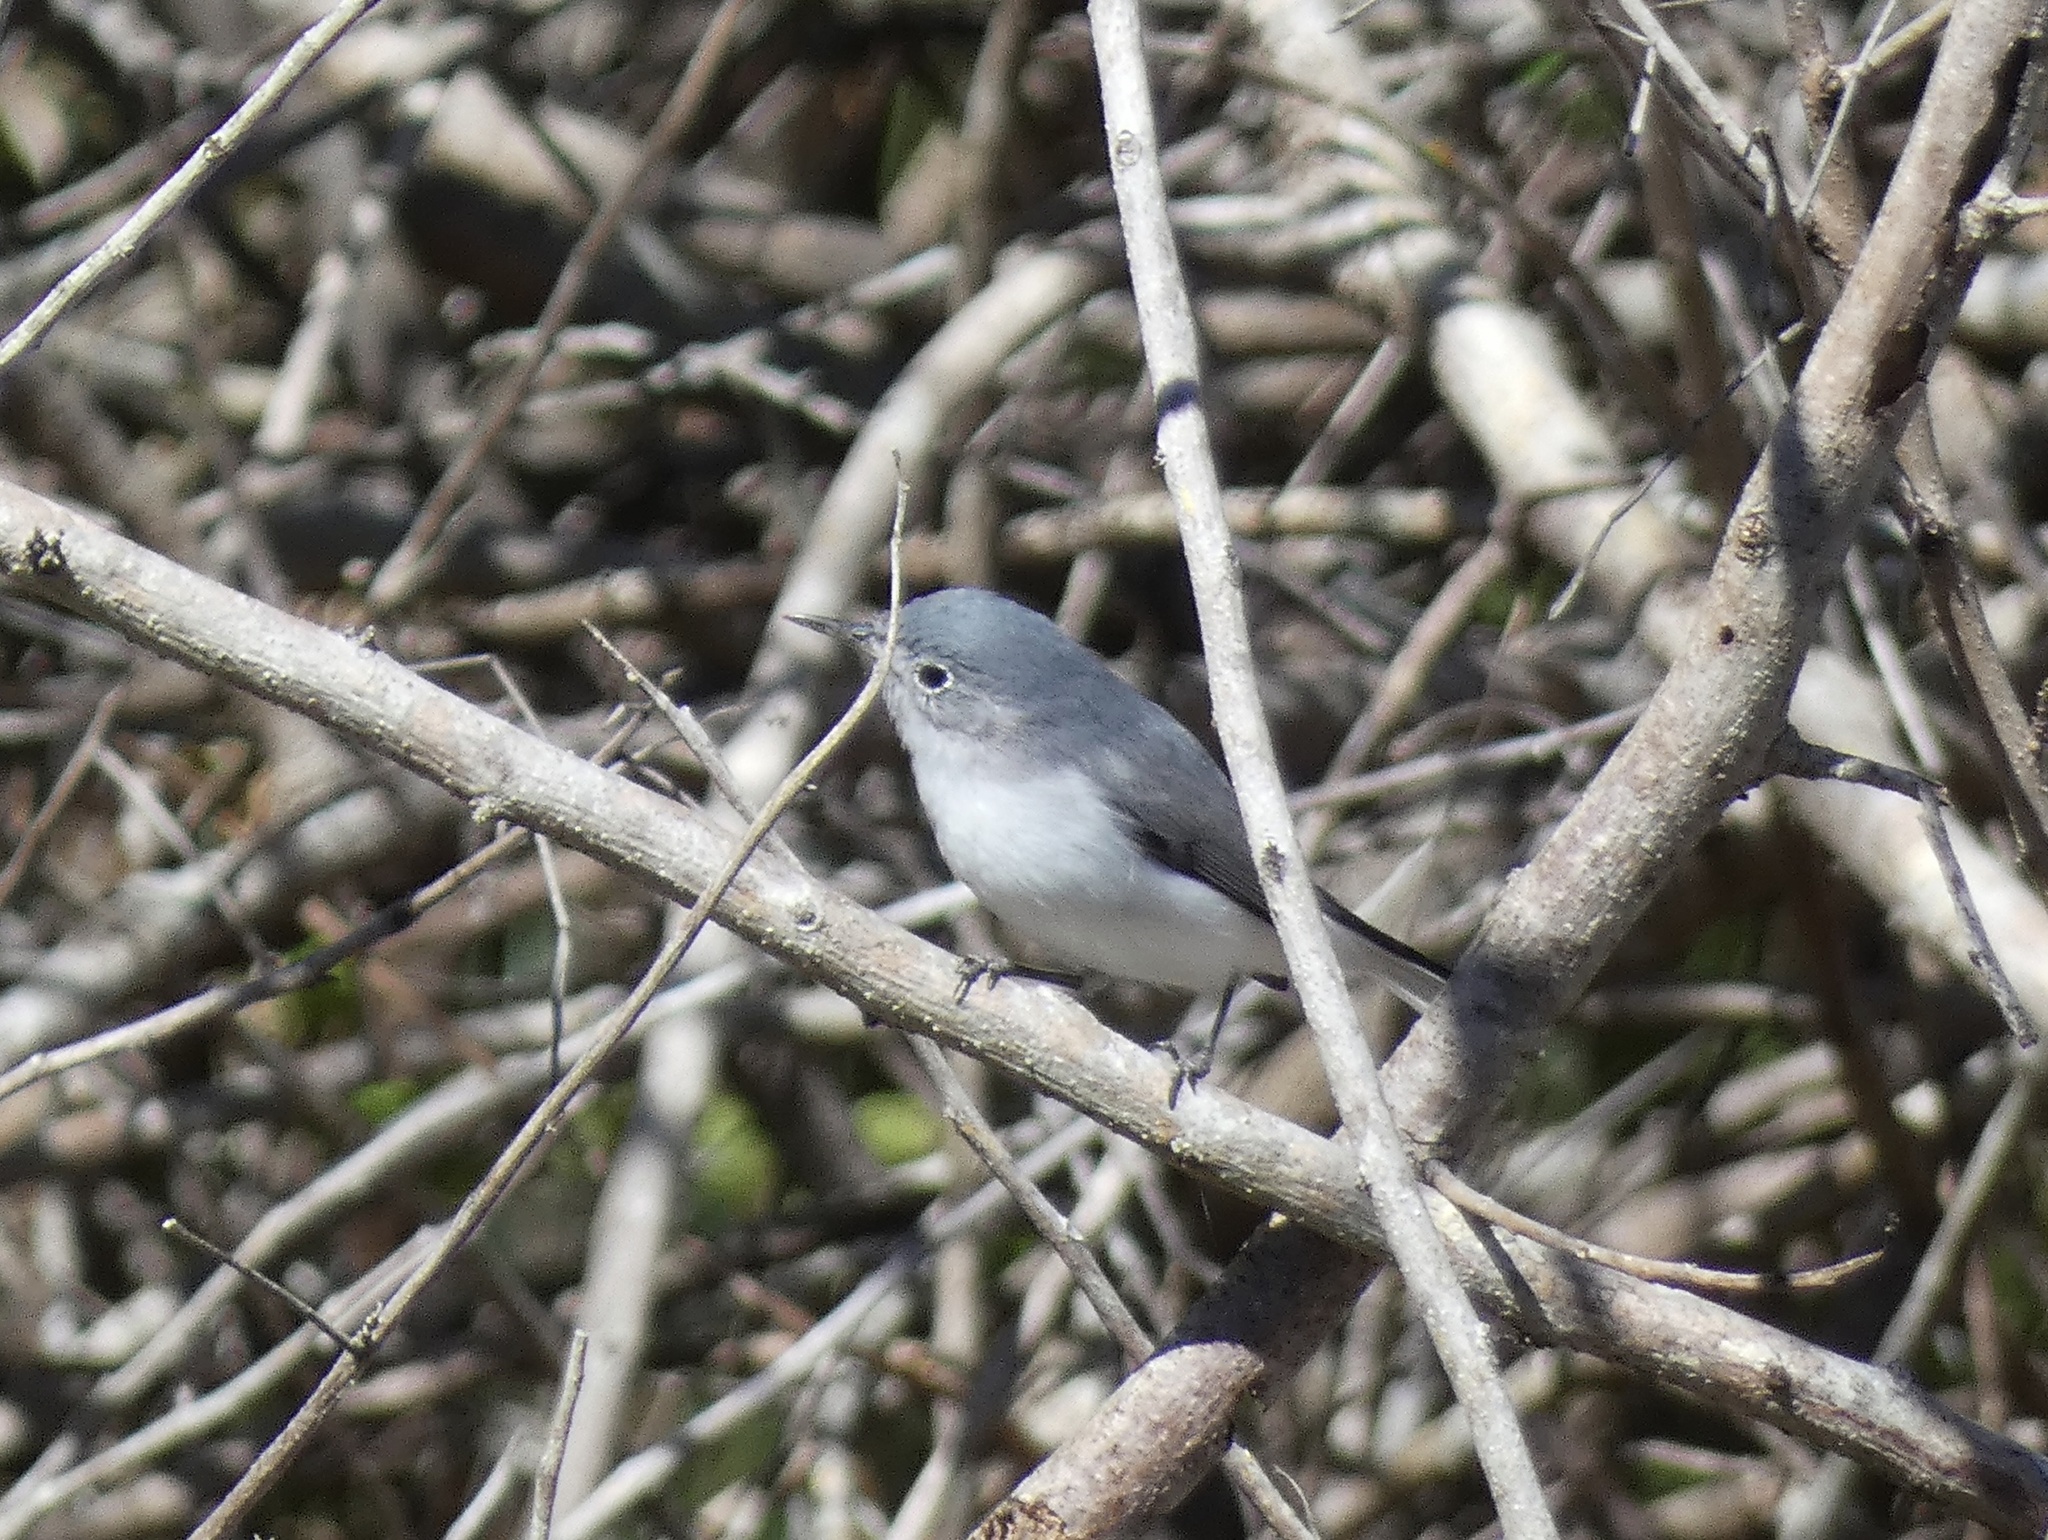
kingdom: Animalia
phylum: Chordata
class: Aves
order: Passeriformes
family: Polioptilidae
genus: Polioptila
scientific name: Polioptila caerulea
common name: Blue-gray gnatcatcher
